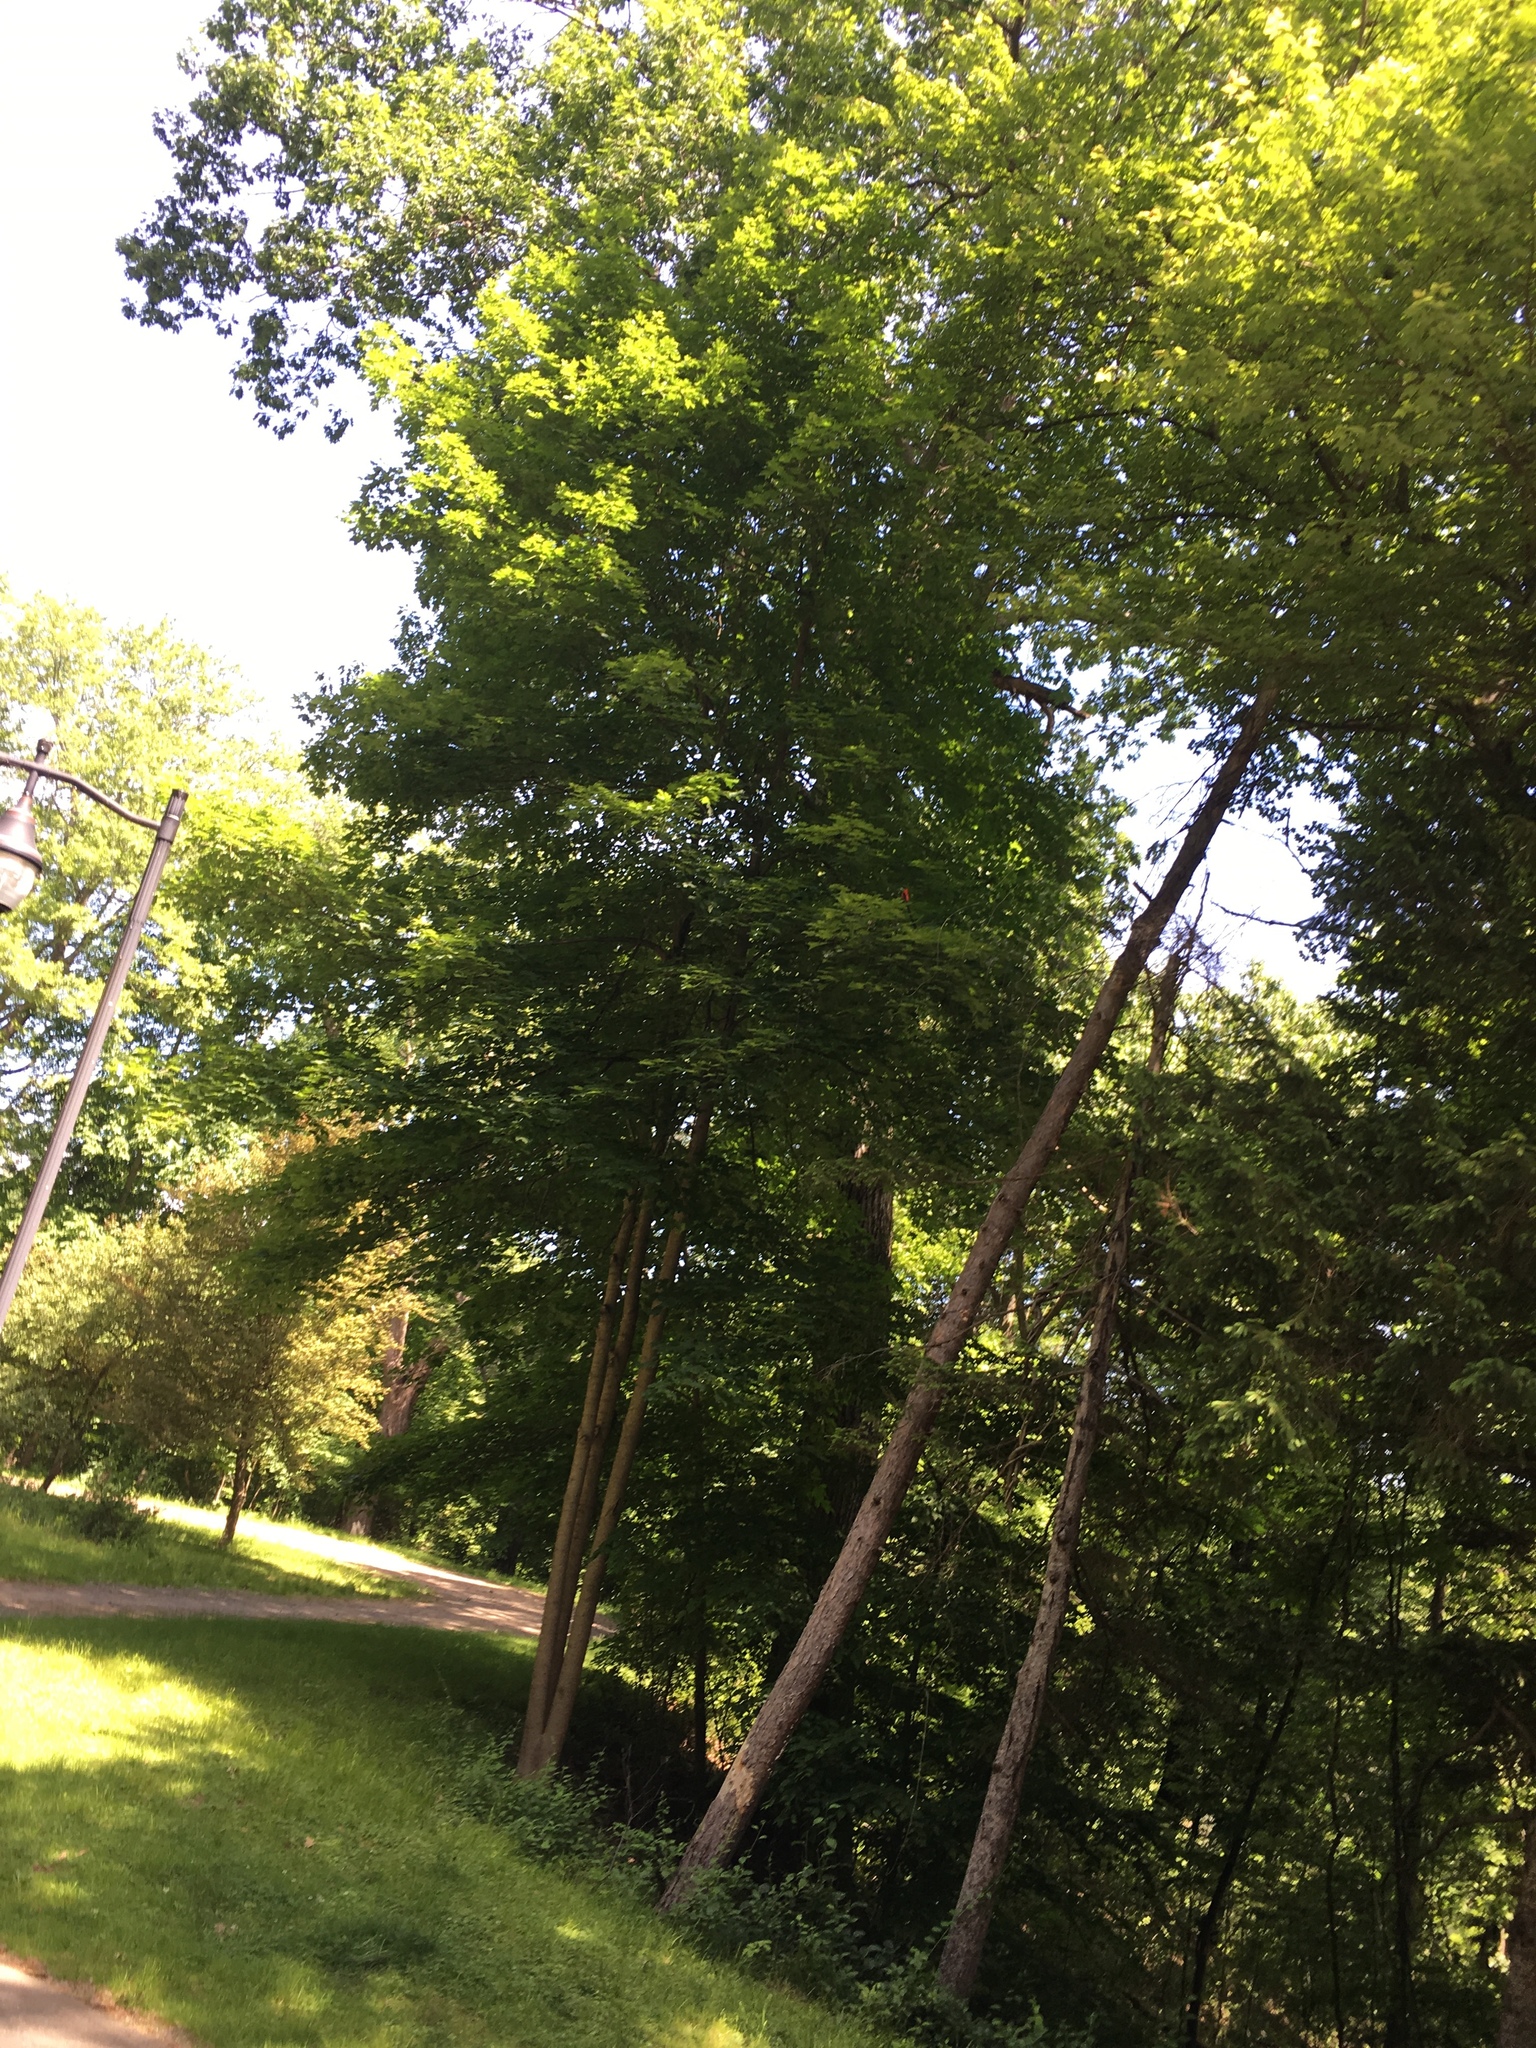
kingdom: Animalia
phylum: Chordata
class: Aves
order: Passeriformes
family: Cardinalidae
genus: Piranga
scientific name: Piranga olivacea
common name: Scarlet tanager
